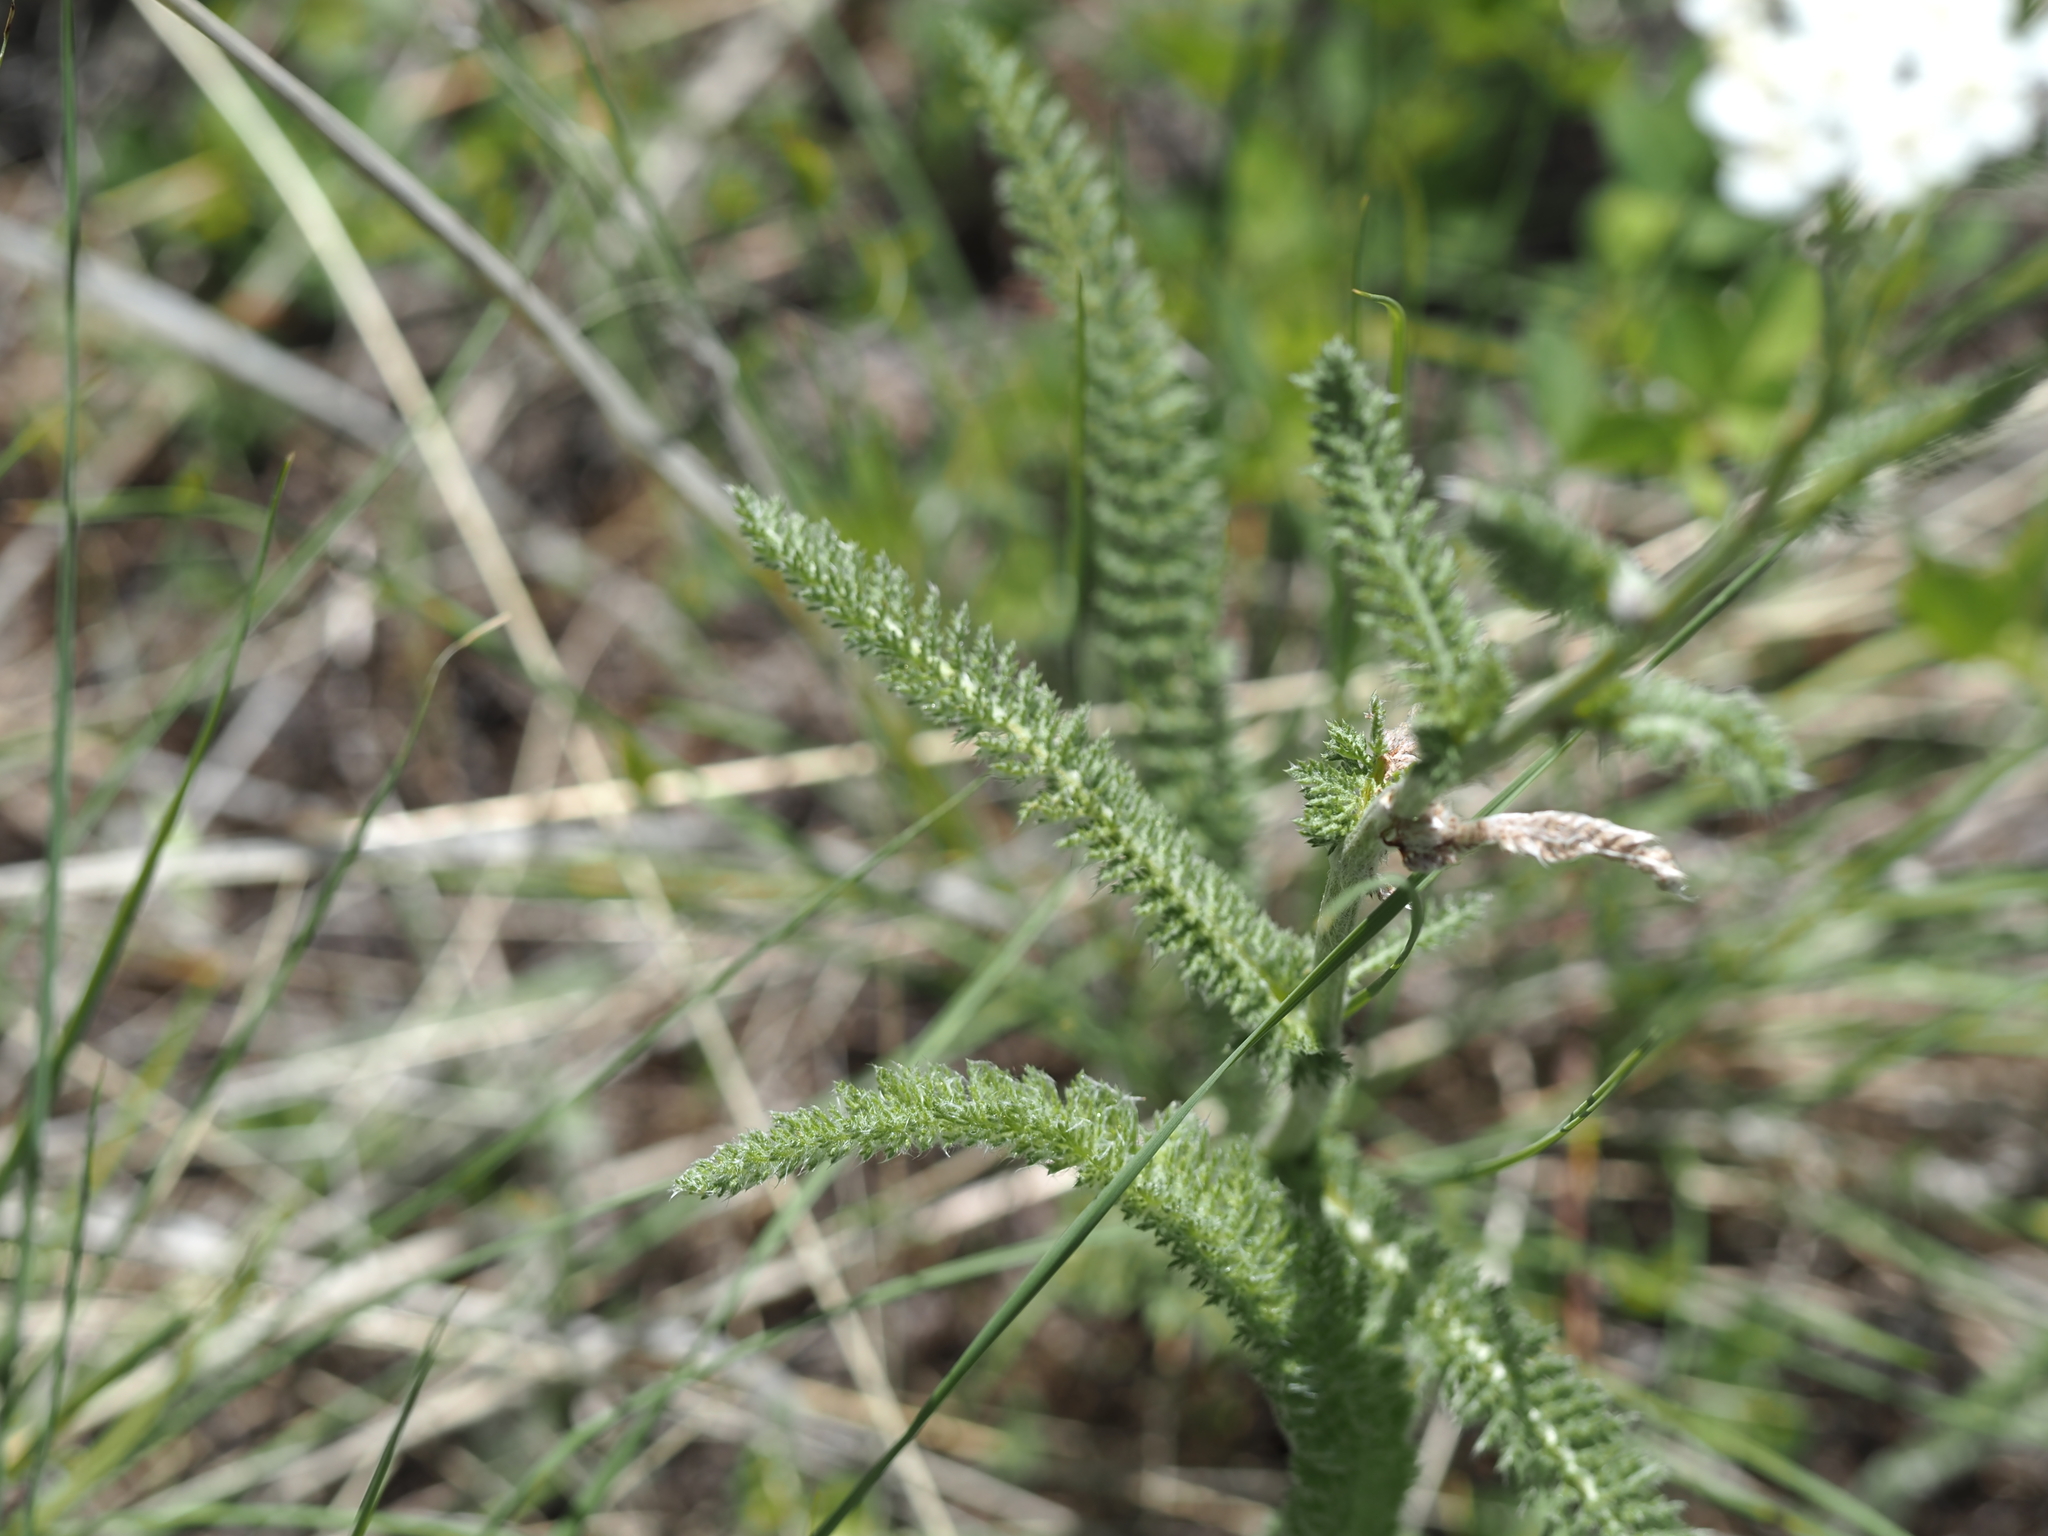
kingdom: Plantae
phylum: Tracheophyta
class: Magnoliopsida
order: Asterales
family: Asteraceae
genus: Achillea
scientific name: Achillea millefolium
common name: Yarrow
